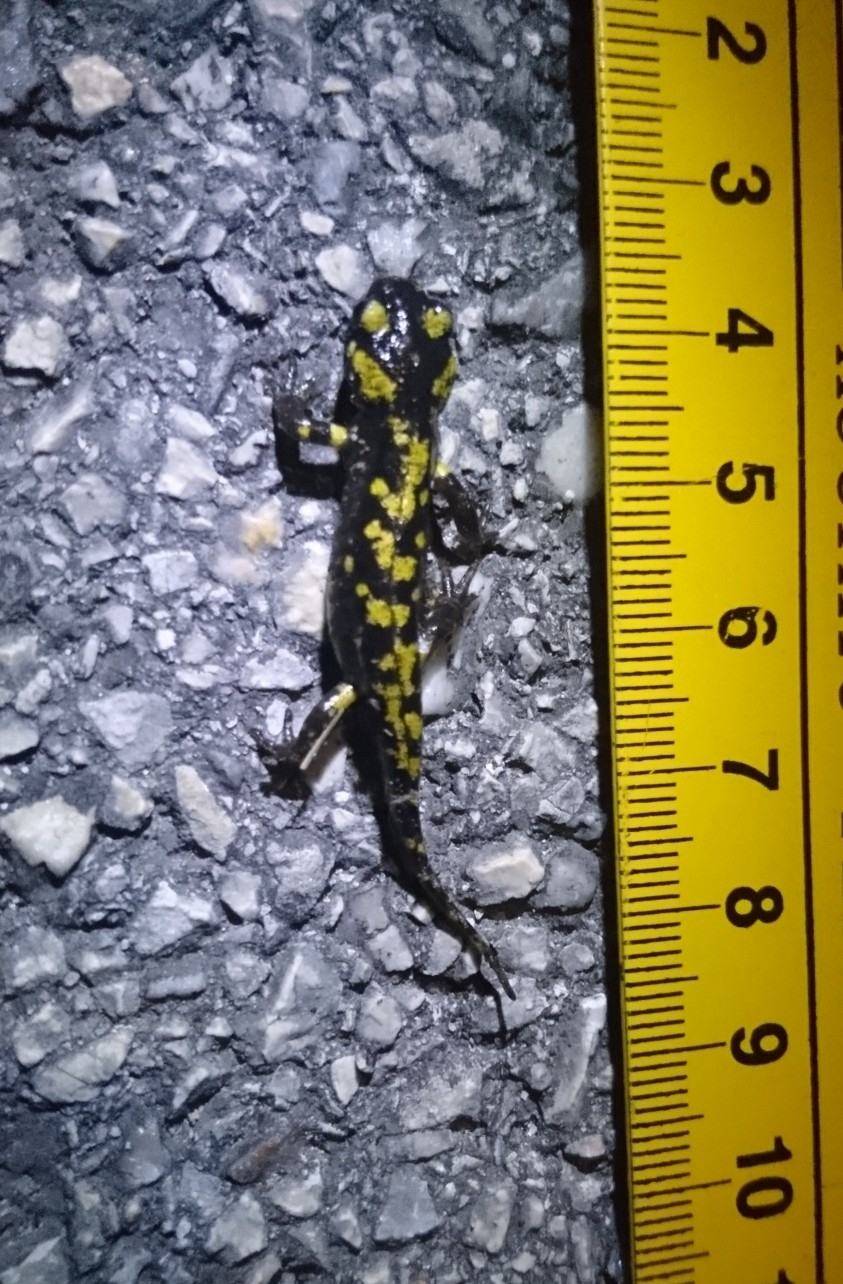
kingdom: Animalia
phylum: Chordata
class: Amphibia
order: Caudata
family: Salamandridae
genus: Salamandra
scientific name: Salamandra salamandra
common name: Fire salamander
